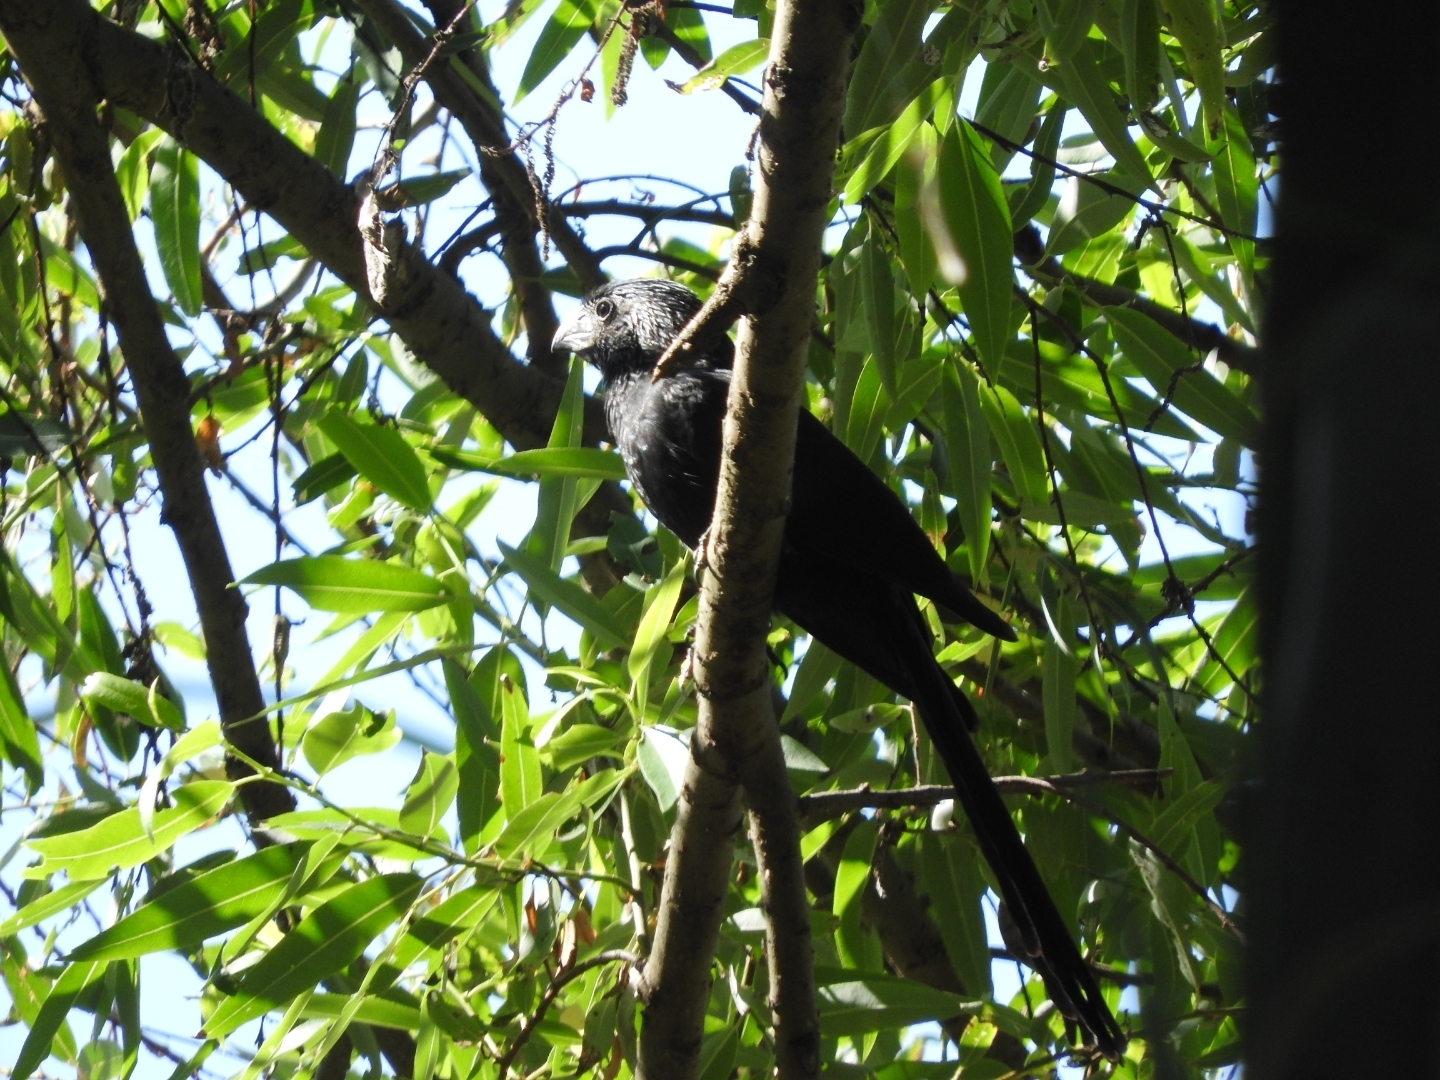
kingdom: Animalia
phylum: Chordata
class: Aves
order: Cuculiformes
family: Cuculidae
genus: Crotophaga
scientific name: Crotophaga sulcirostris
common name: Groove-billed ani
